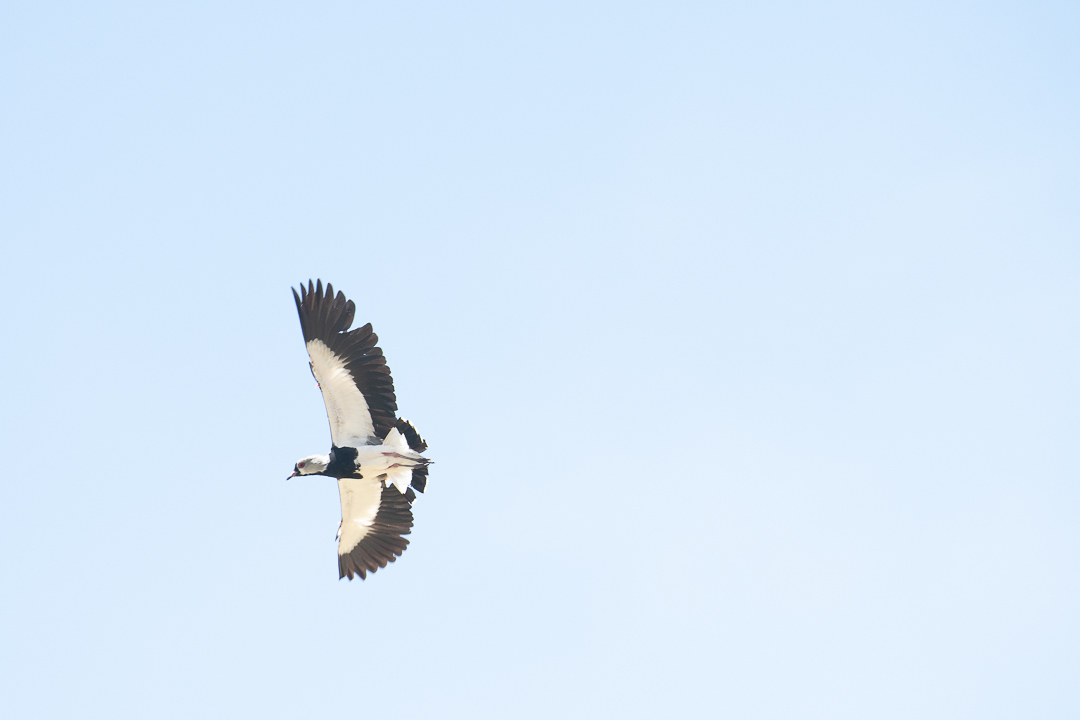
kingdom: Animalia
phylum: Chordata
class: Aves
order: Charadriiformes
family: Charadriidae
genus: Vanellus
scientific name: Vanellus chilensis
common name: Southern lapwing
